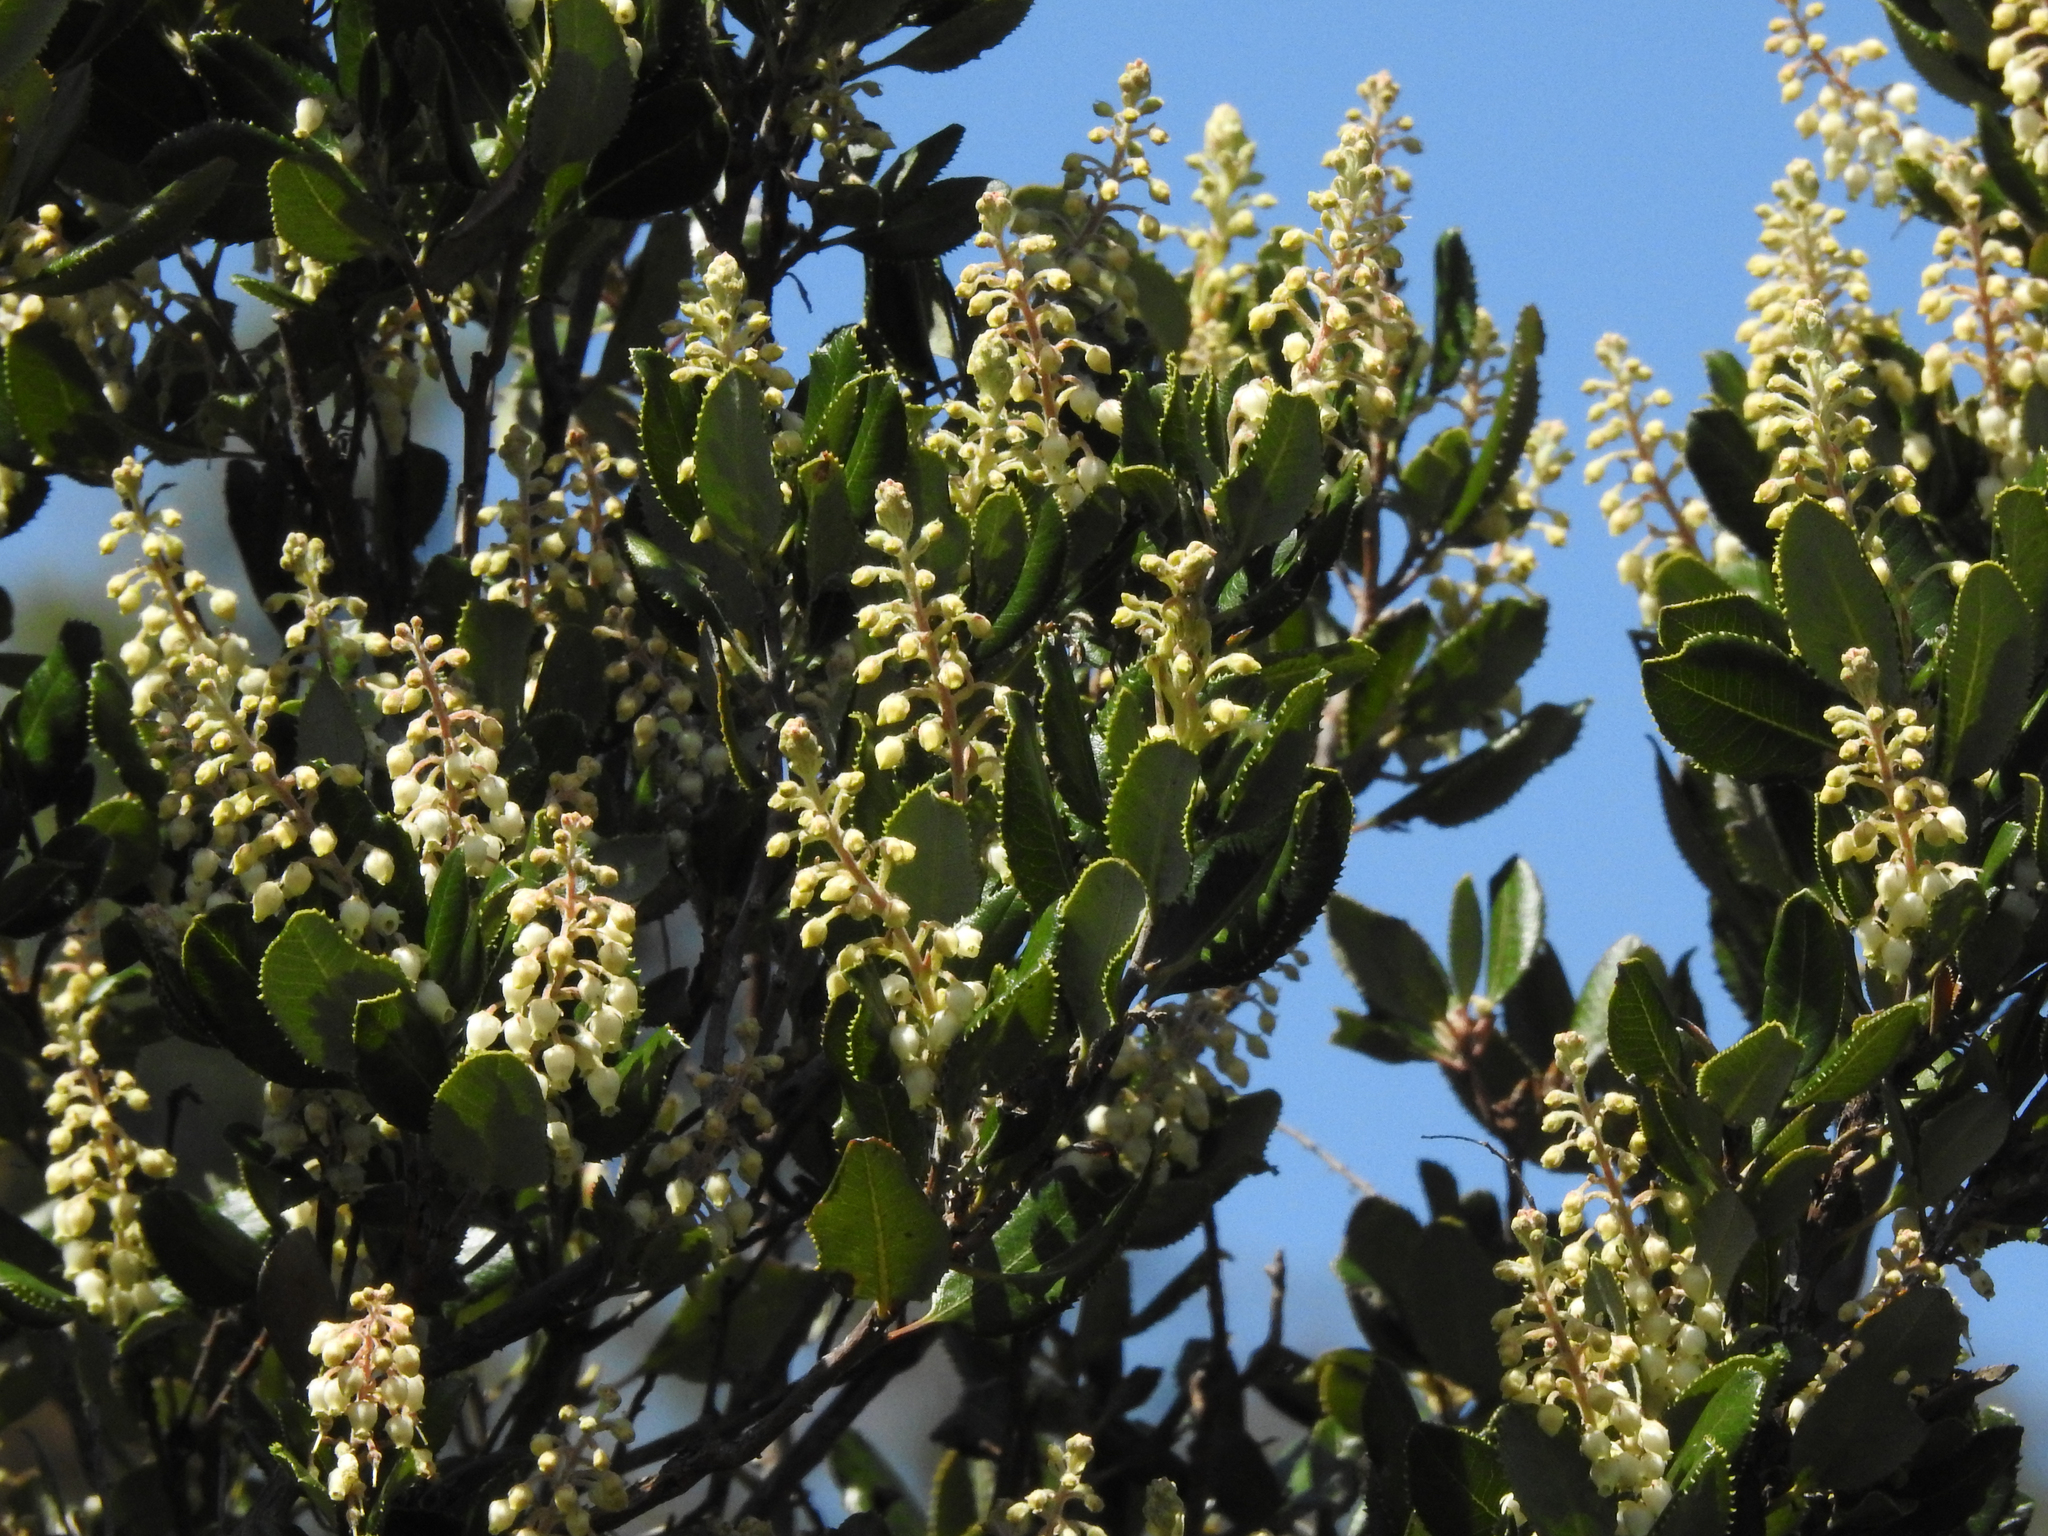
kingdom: Plantae
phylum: Tracheophyta
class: Magnoliopsida
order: Ericales
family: Ericaceae
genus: Comarostaphylis
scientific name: Comarostaphylis diversifolia
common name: Summer-holly
